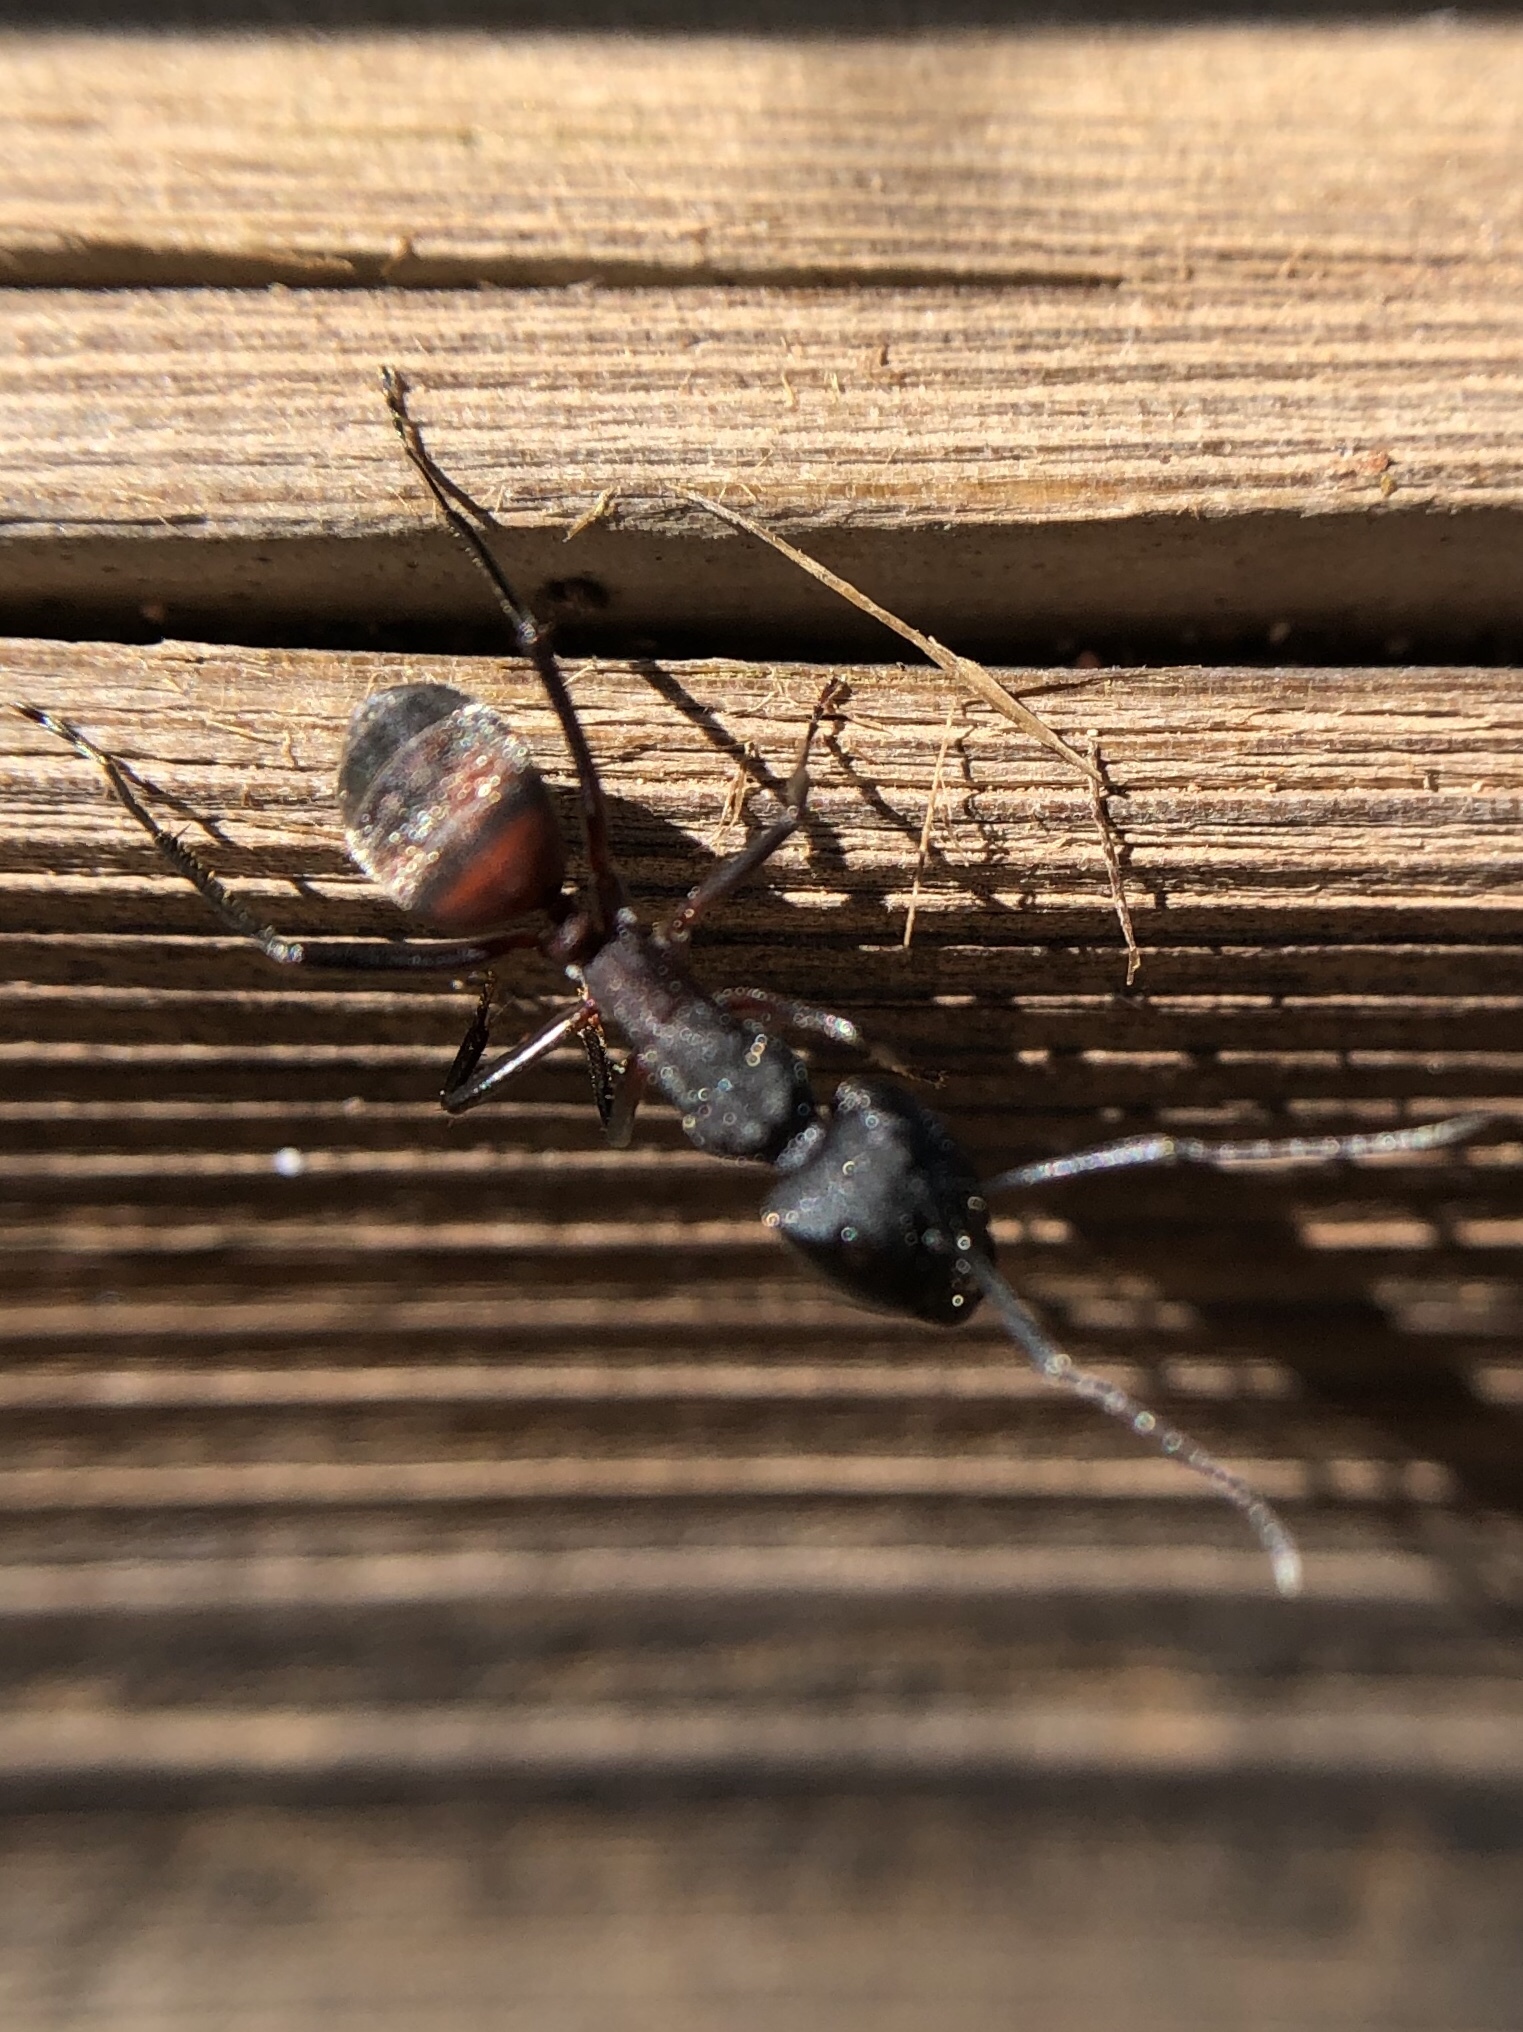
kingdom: Animalia
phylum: Arthropoda
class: Insecta
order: Hymenoptera
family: Formicidae
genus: Camponotus
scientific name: Camponotus cruentatus
